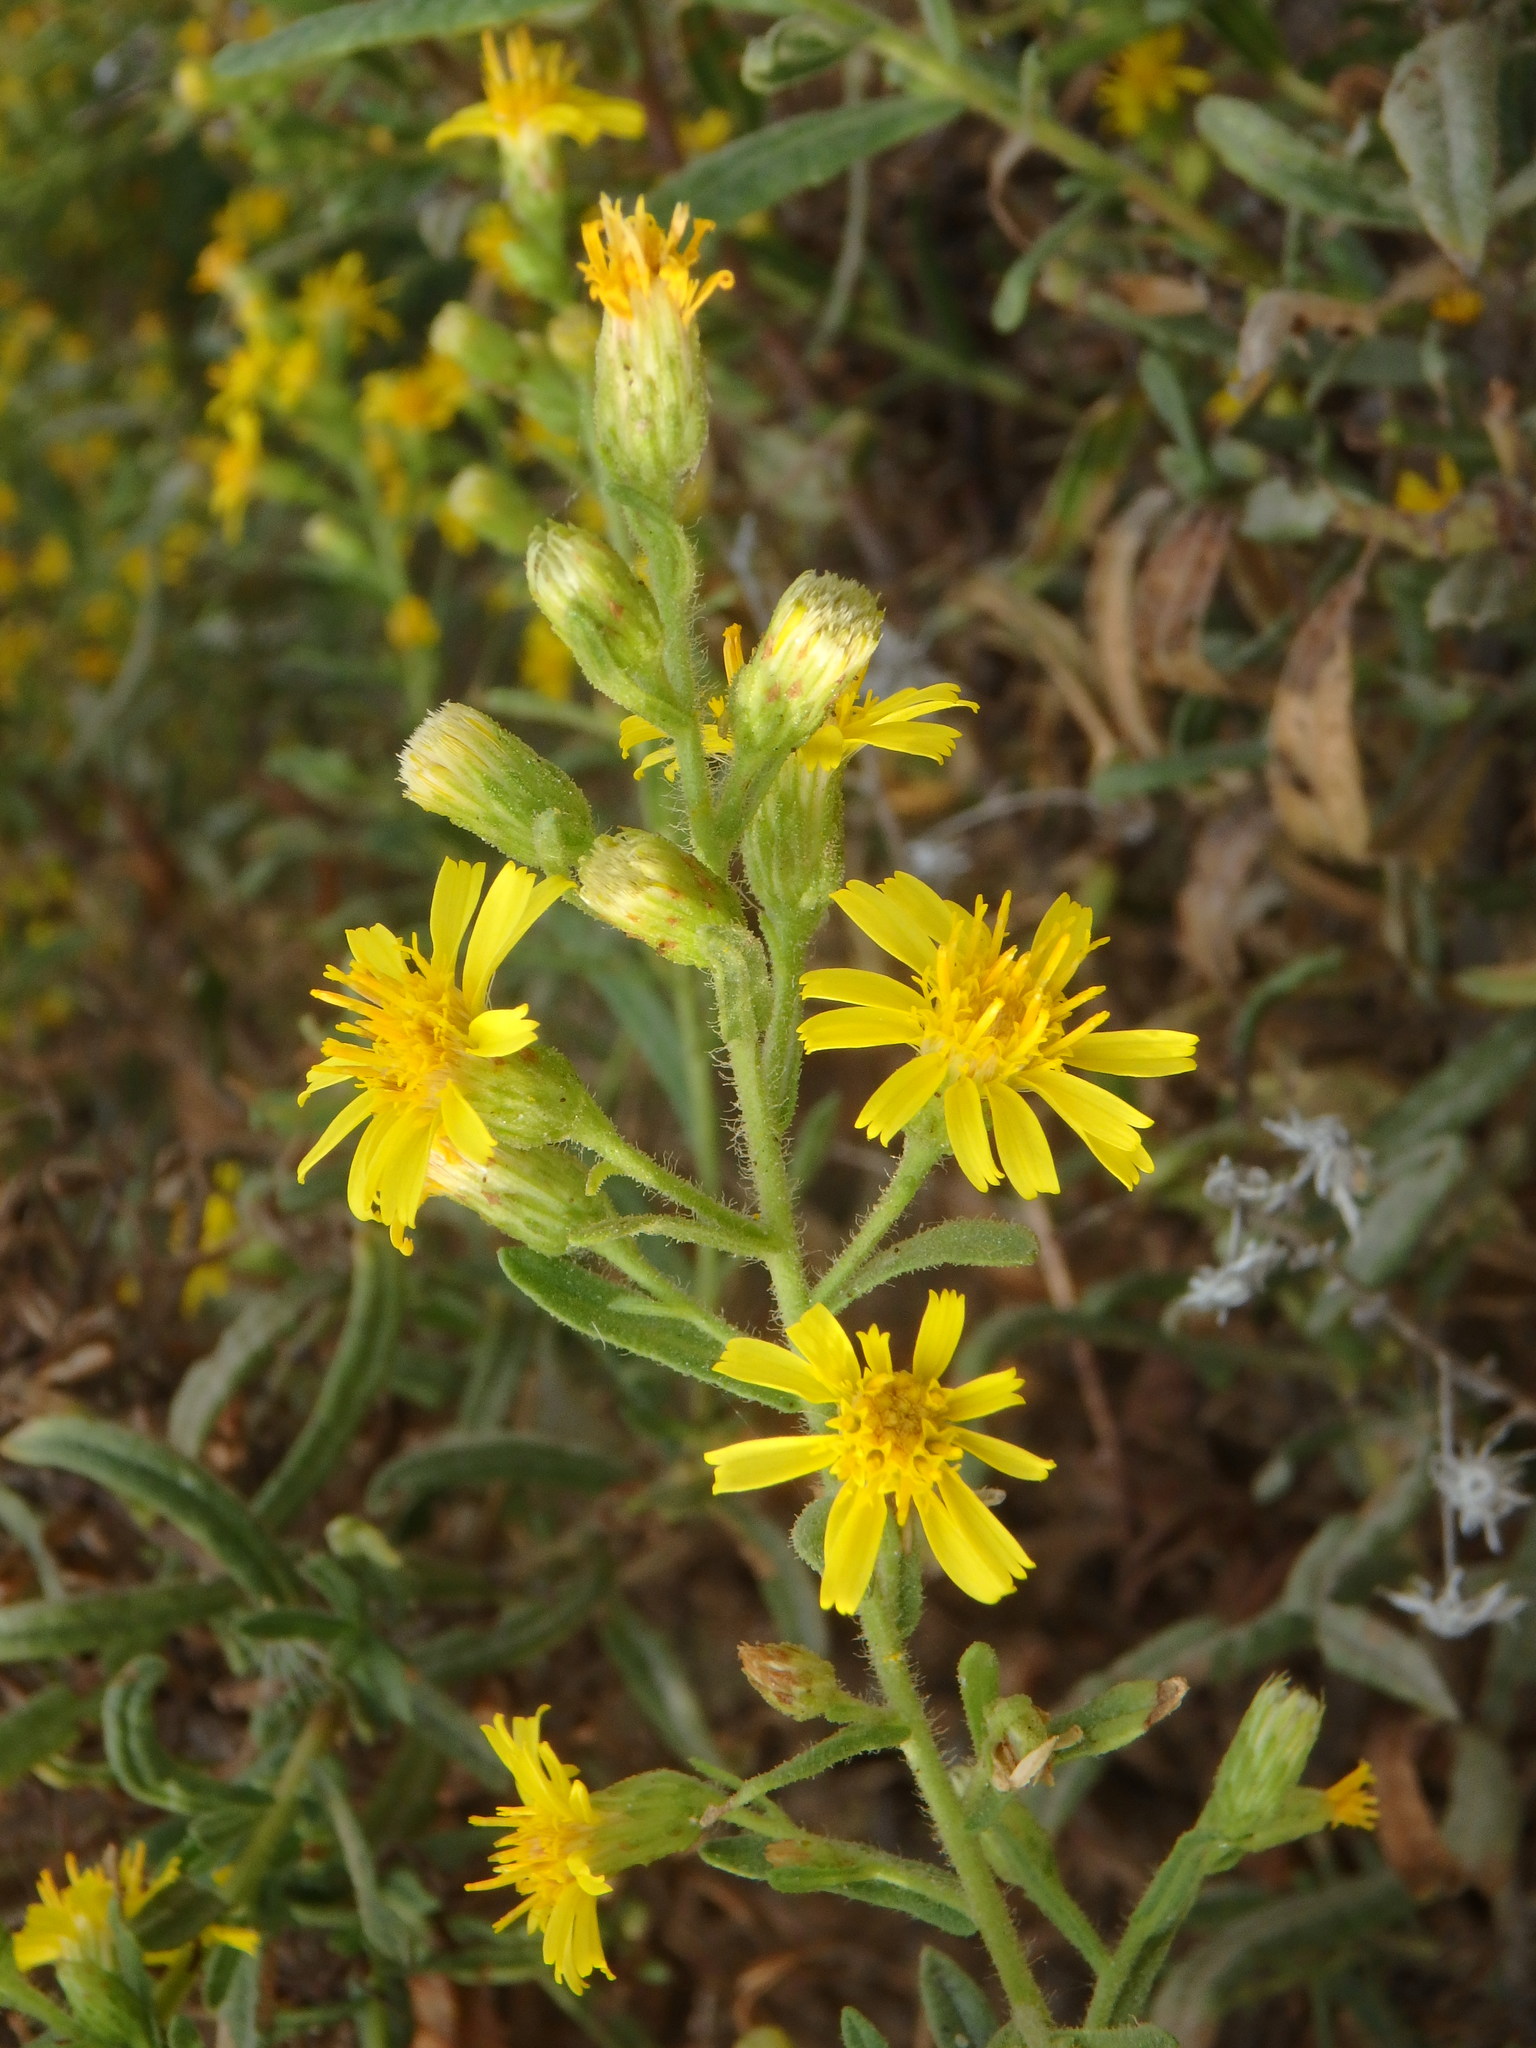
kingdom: Plantae
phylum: Tracheophyta
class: Magnoliopsida
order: Asterales
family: Asteraceae
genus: Dittrichia
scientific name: Dittrichia viscosa
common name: Woody fleabane
